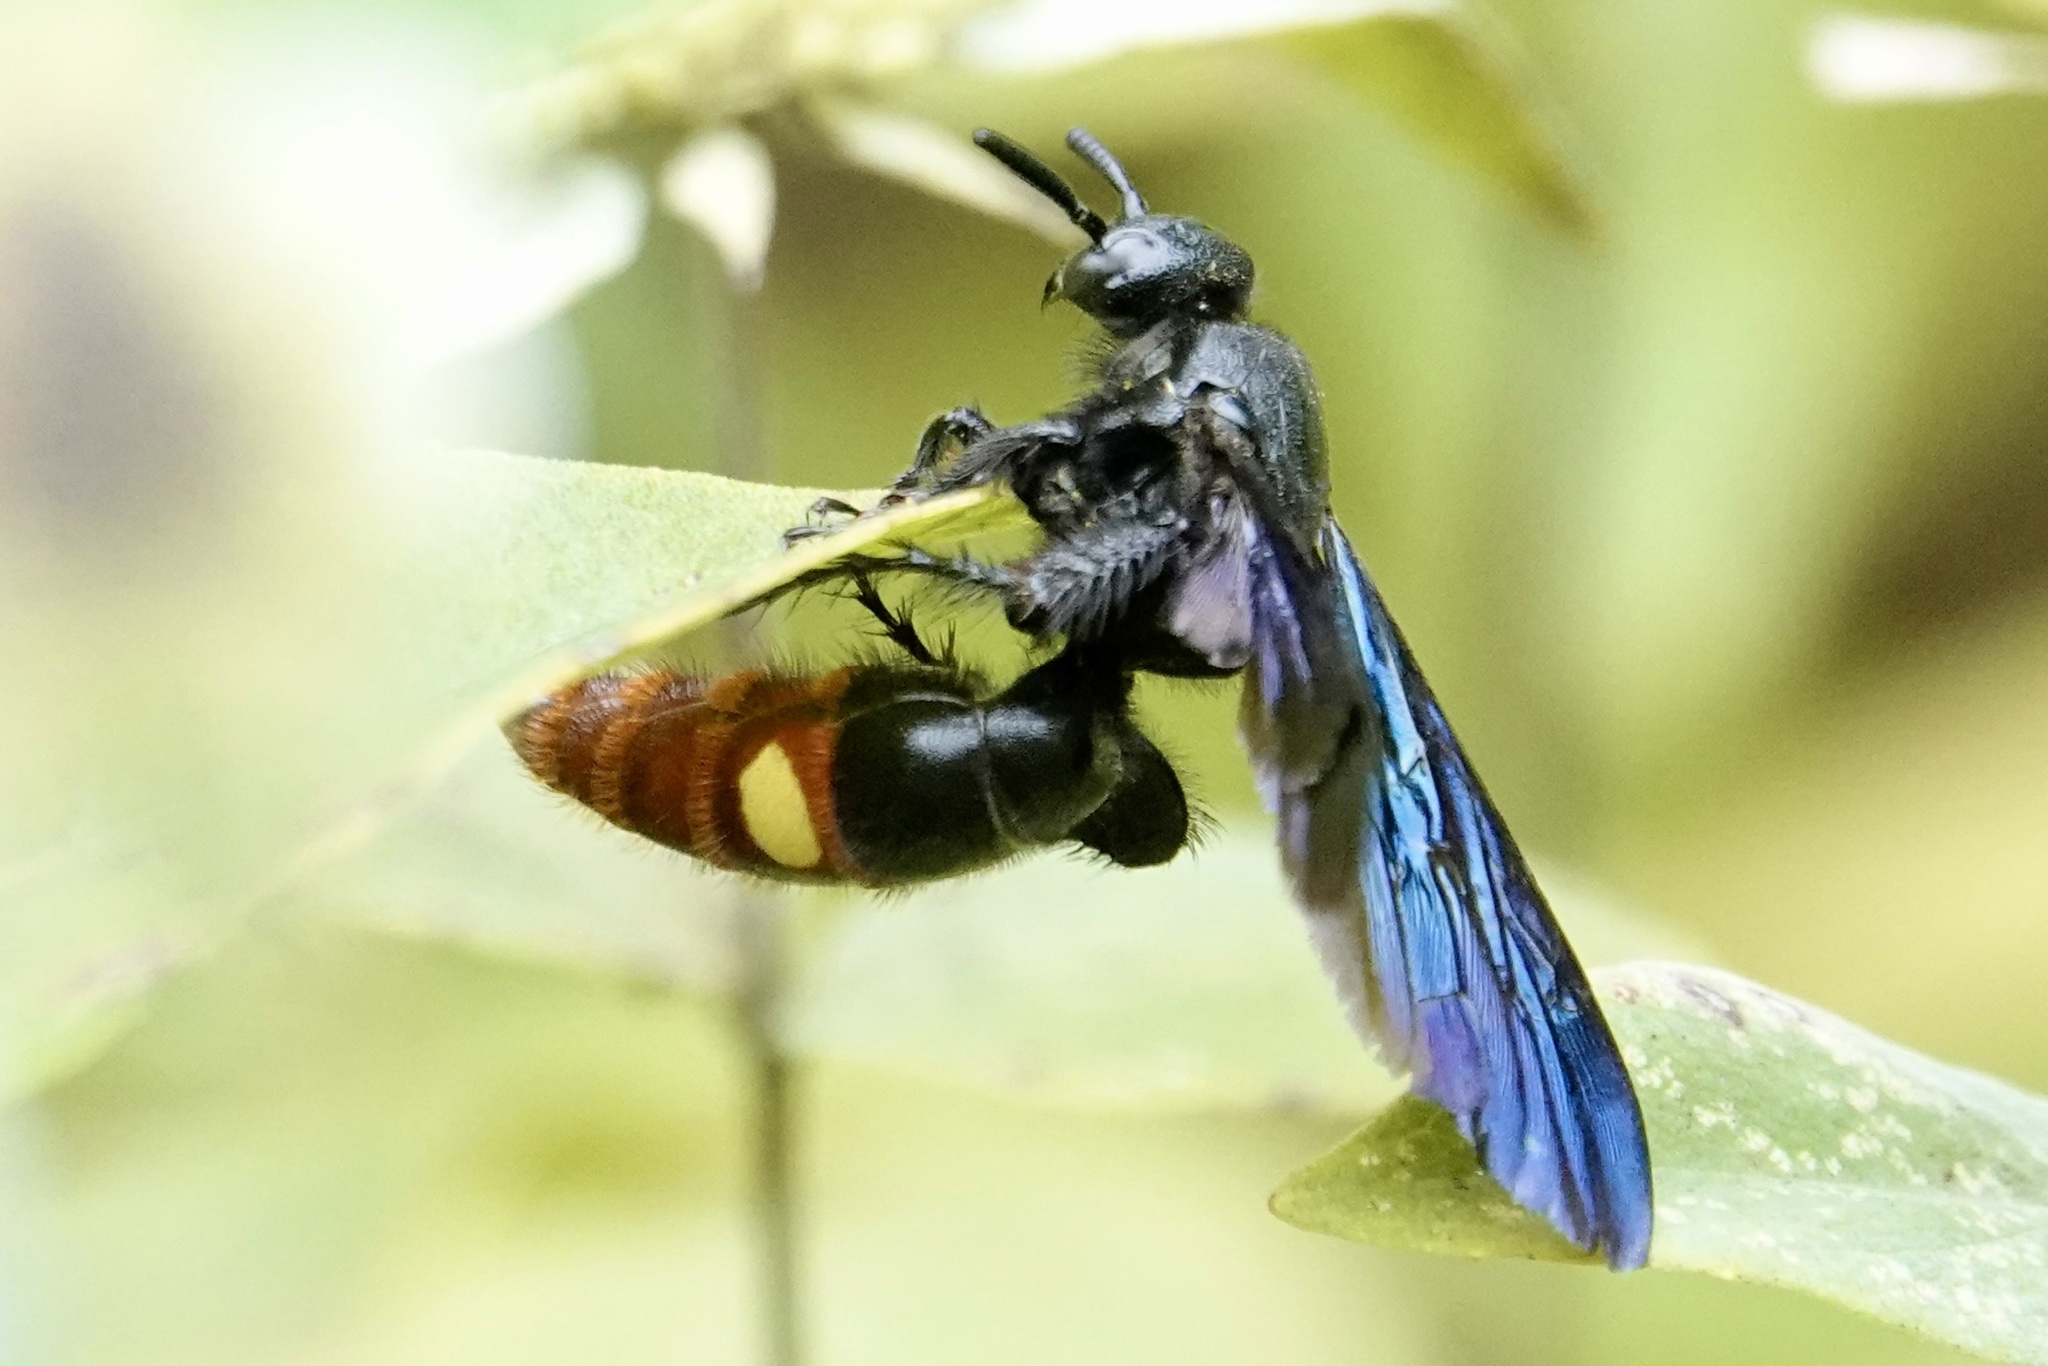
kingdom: Animalia
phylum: Arthropoda
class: Insecta
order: Hymenoptera
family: Scoliidae
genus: Scolia
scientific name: Scolia dubia
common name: Blue-winged scoliid wasp
